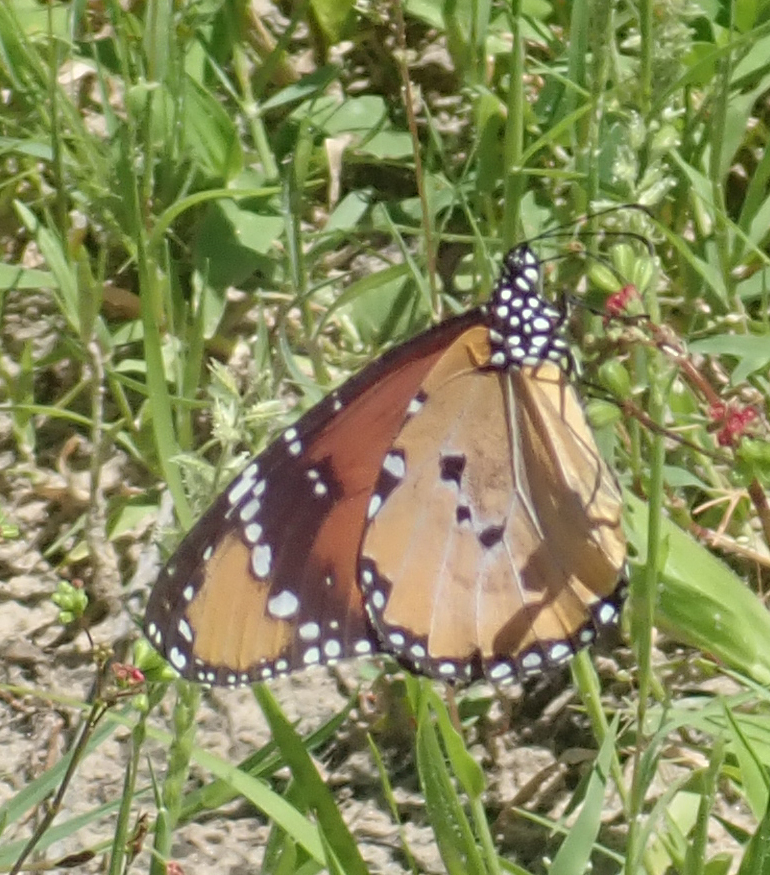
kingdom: Animalia
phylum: Arthropoda
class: Insecta
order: Lepidoptera
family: Nymphalidae
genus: Danaus
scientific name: Danaus chrysippus
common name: Plain tiger
